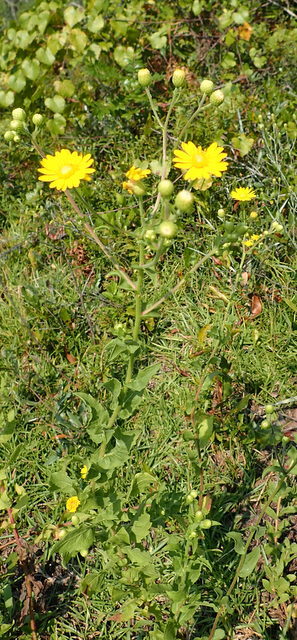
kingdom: Plantae
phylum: Tracheophyta
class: Magnoliopsida
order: Asterales
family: Asteraceae
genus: Heterotheca
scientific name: Heterotheca subaxillaris
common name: Camphorweed
